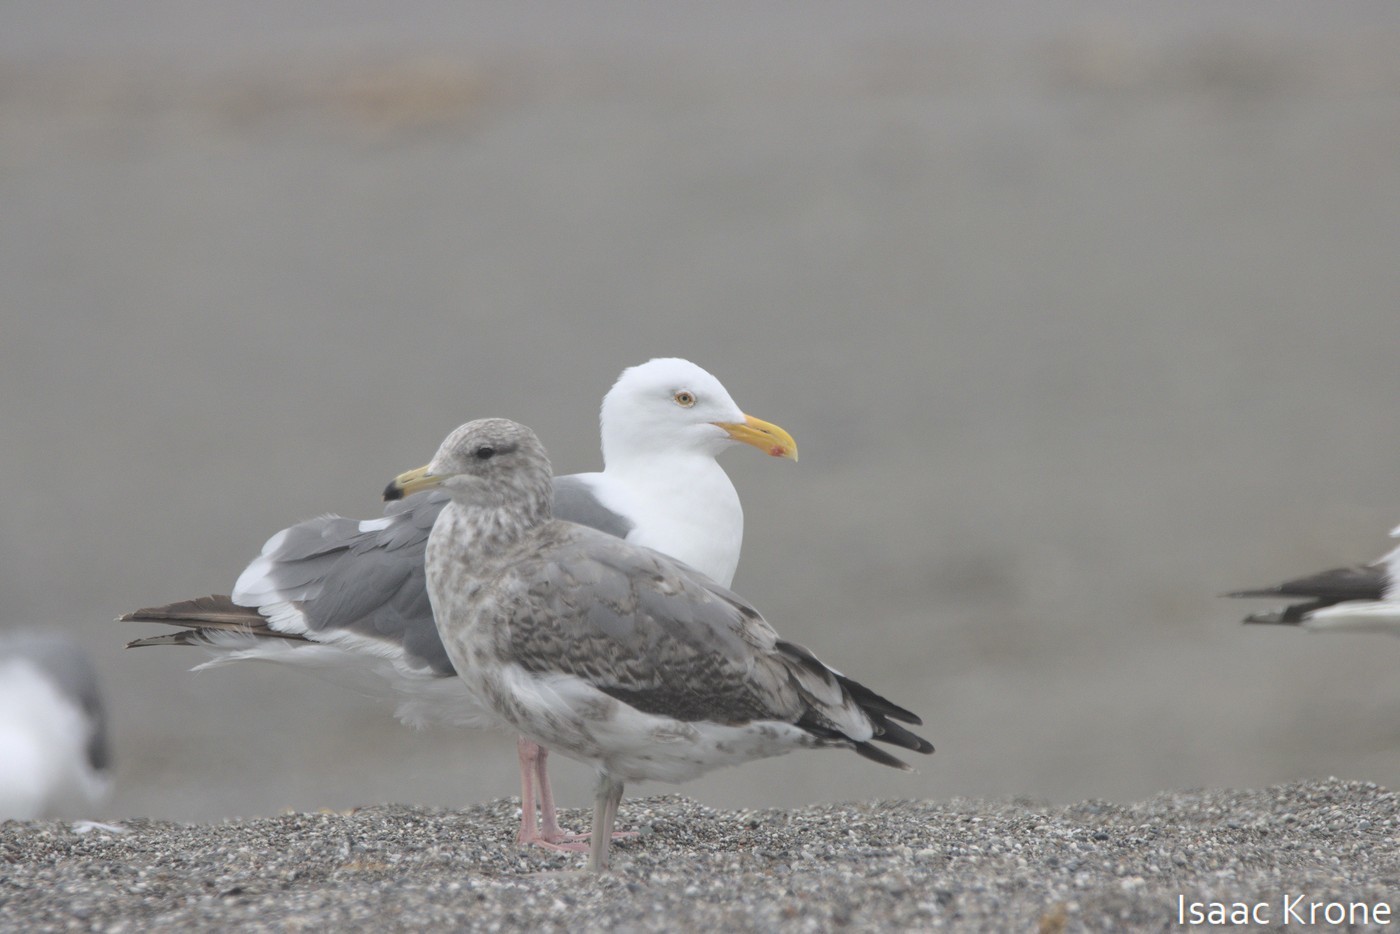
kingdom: Animalia
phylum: Chordata
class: Aves
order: Charadriiformes
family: Laridae
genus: Larus
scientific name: Larus argentatus
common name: Herring gull
